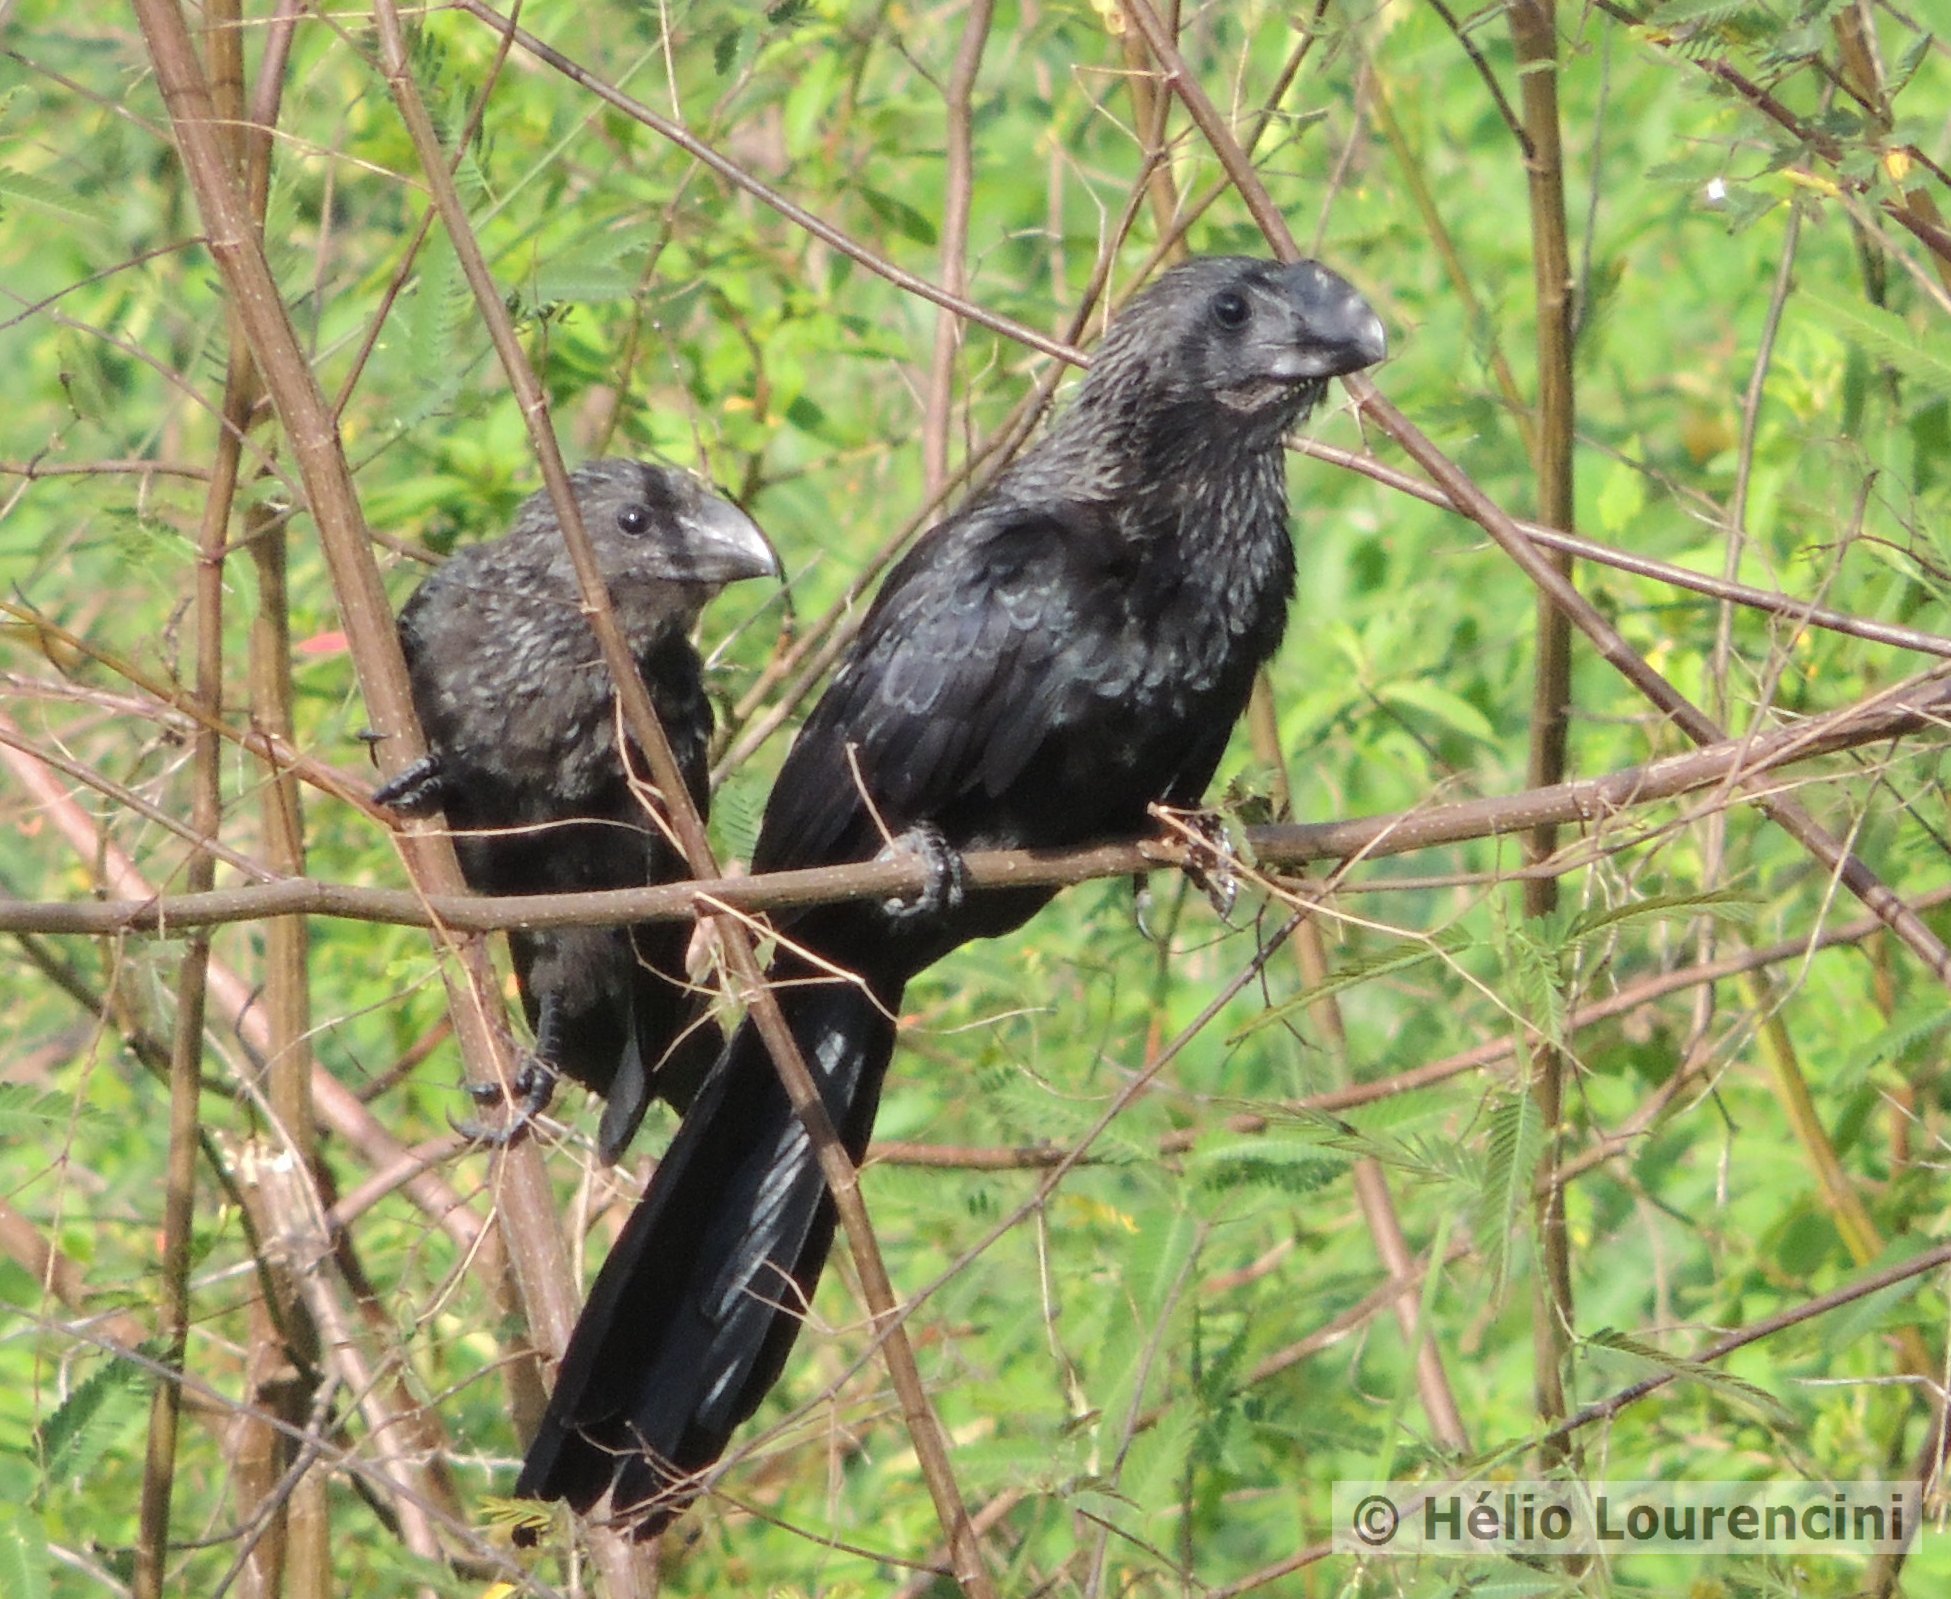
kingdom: Animalia
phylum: Chordata
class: Aves
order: Cuculiformes
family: Cuculidae
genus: Crotophaga
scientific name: Crotophaga ani
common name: Smooth-billed ani
